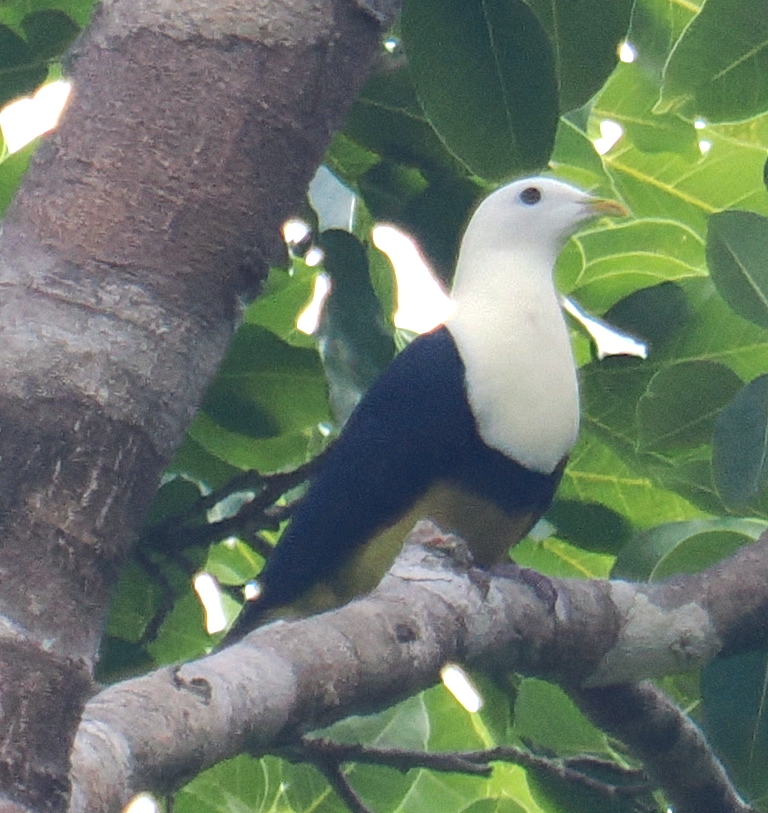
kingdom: Animalia
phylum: Chordata
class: Aves
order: Columbiformes
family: Columbidae
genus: Ptilinopus
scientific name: Ptilinopus cinctus
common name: Banded fruit dove
